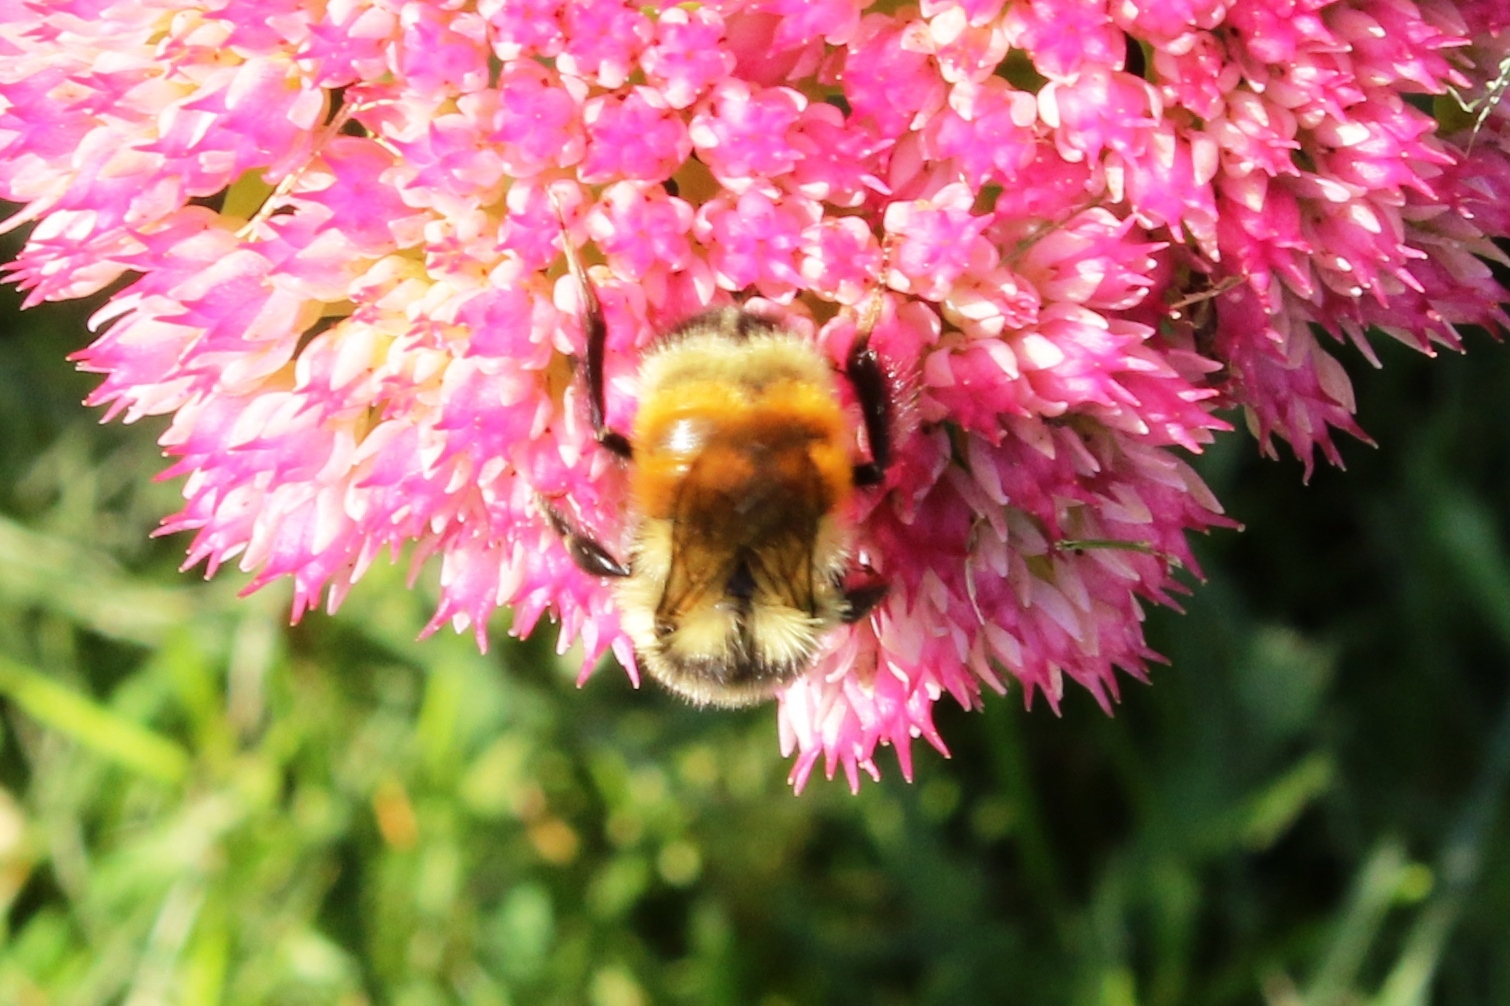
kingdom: Animalia
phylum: Arthropoda
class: Insecta
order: Hymenoptera
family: Apidae
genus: Bombus
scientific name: Bombus ternarius
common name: Tri-colored bumble bee
